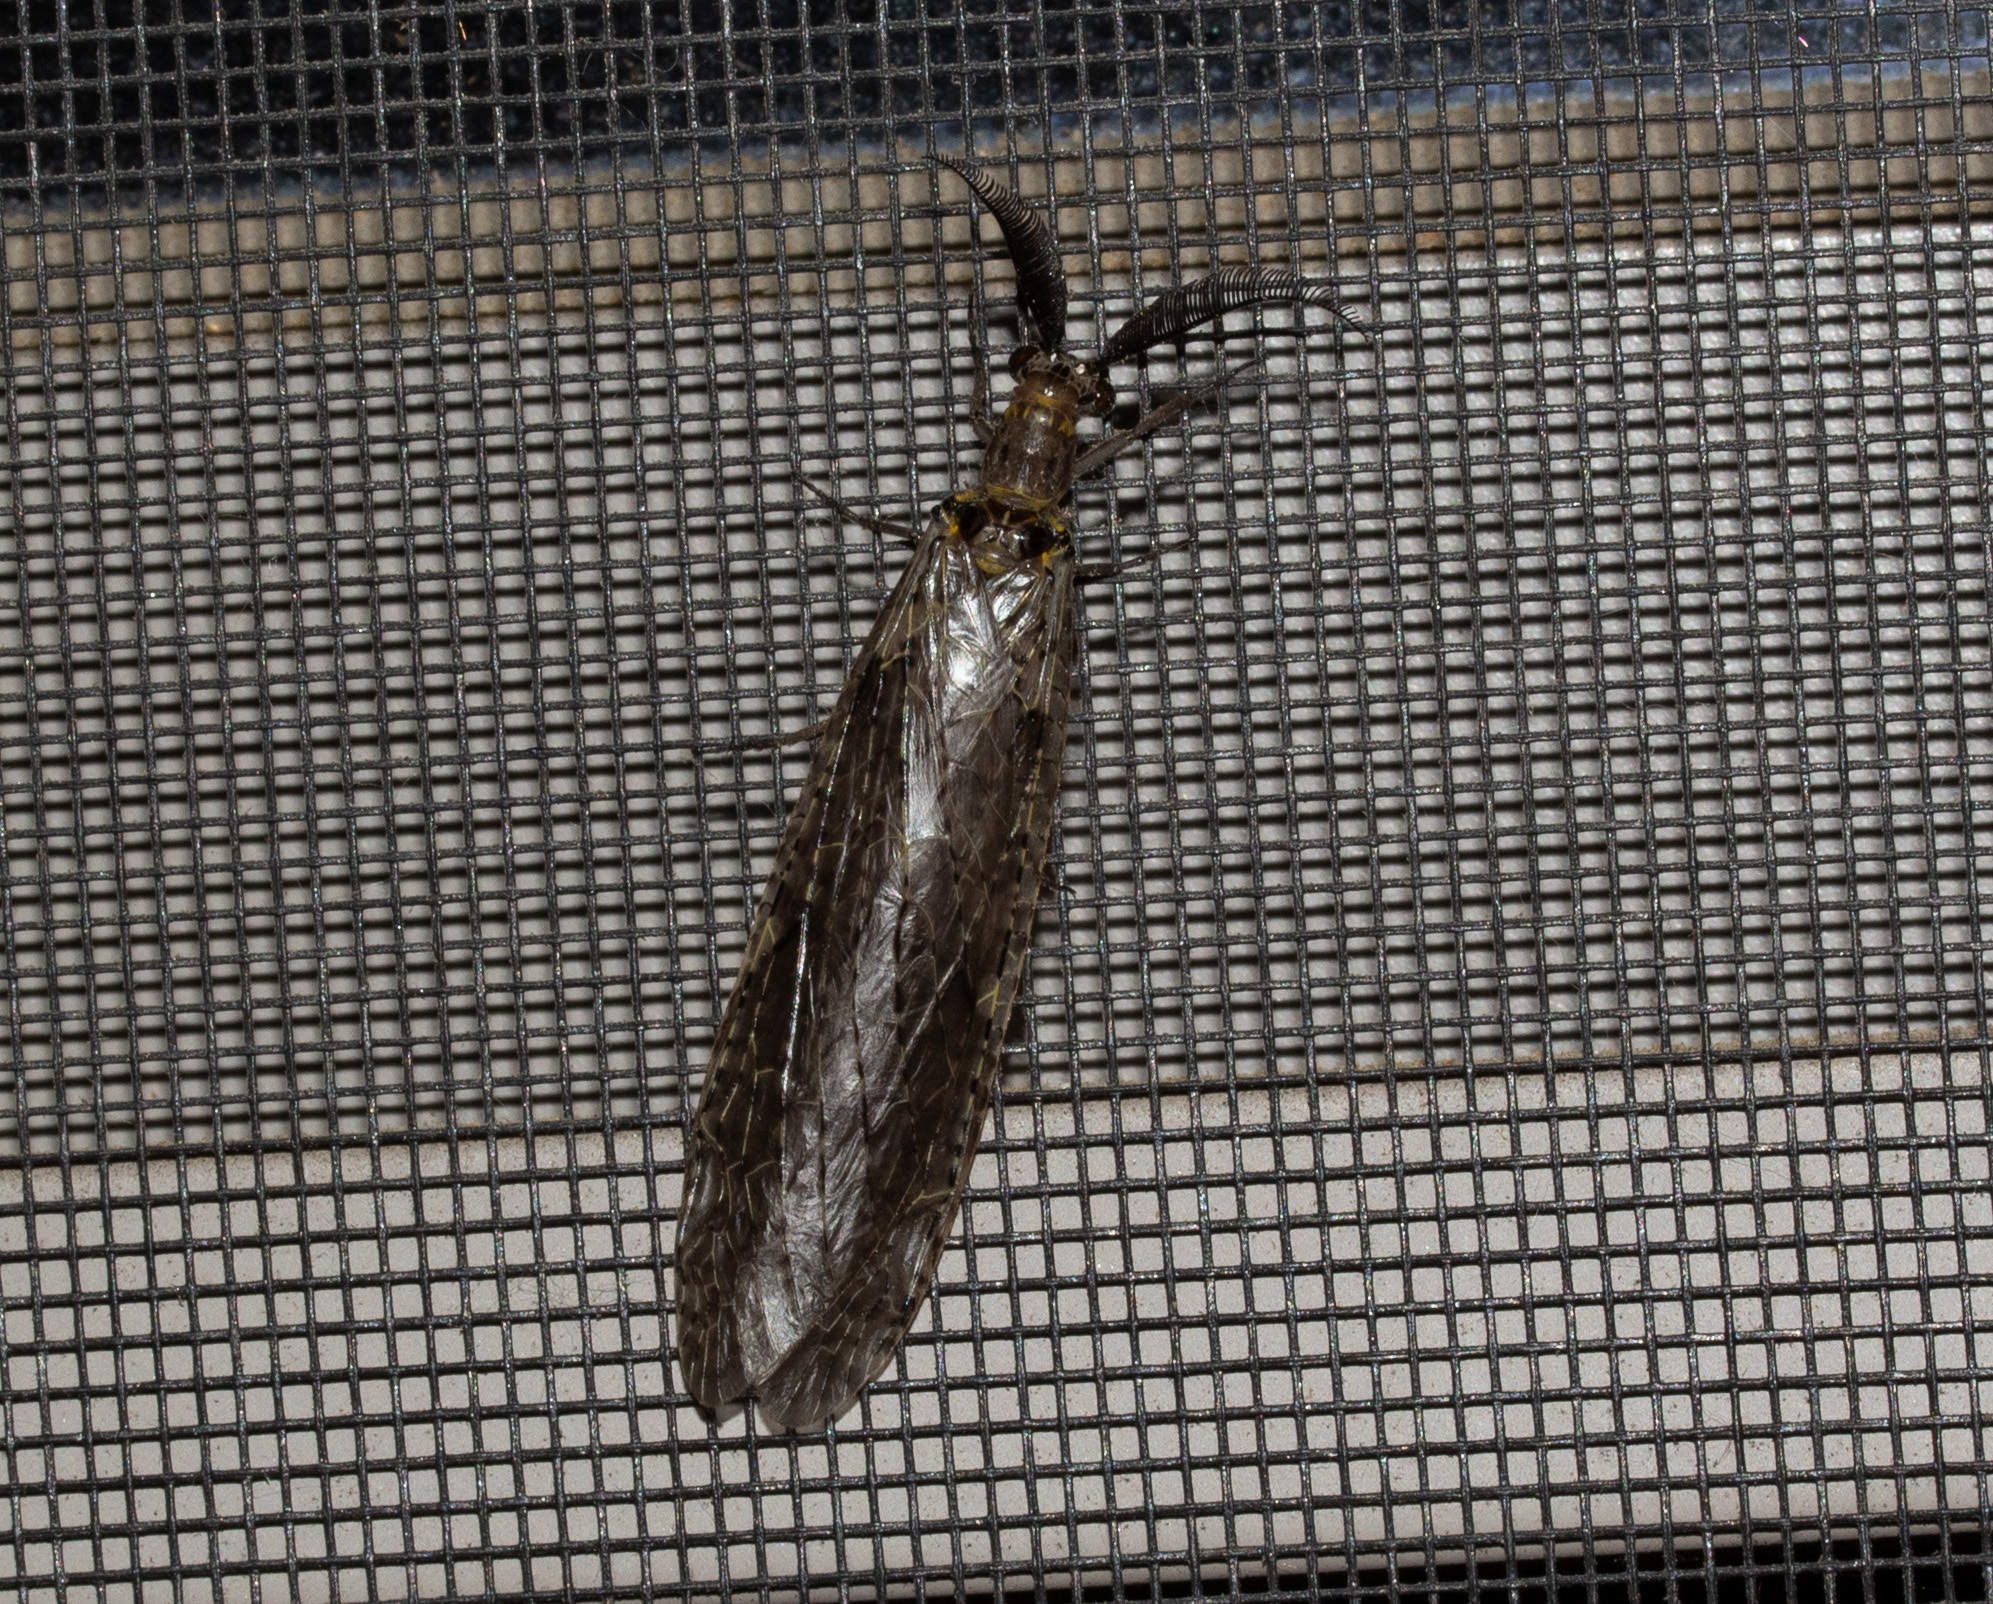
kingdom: Animalia
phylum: Arthropoda
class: Insecta
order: Megaloptera
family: Corydalidae
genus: Chauliodes
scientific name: Chauliodes rastricornis
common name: Spring fishfly
